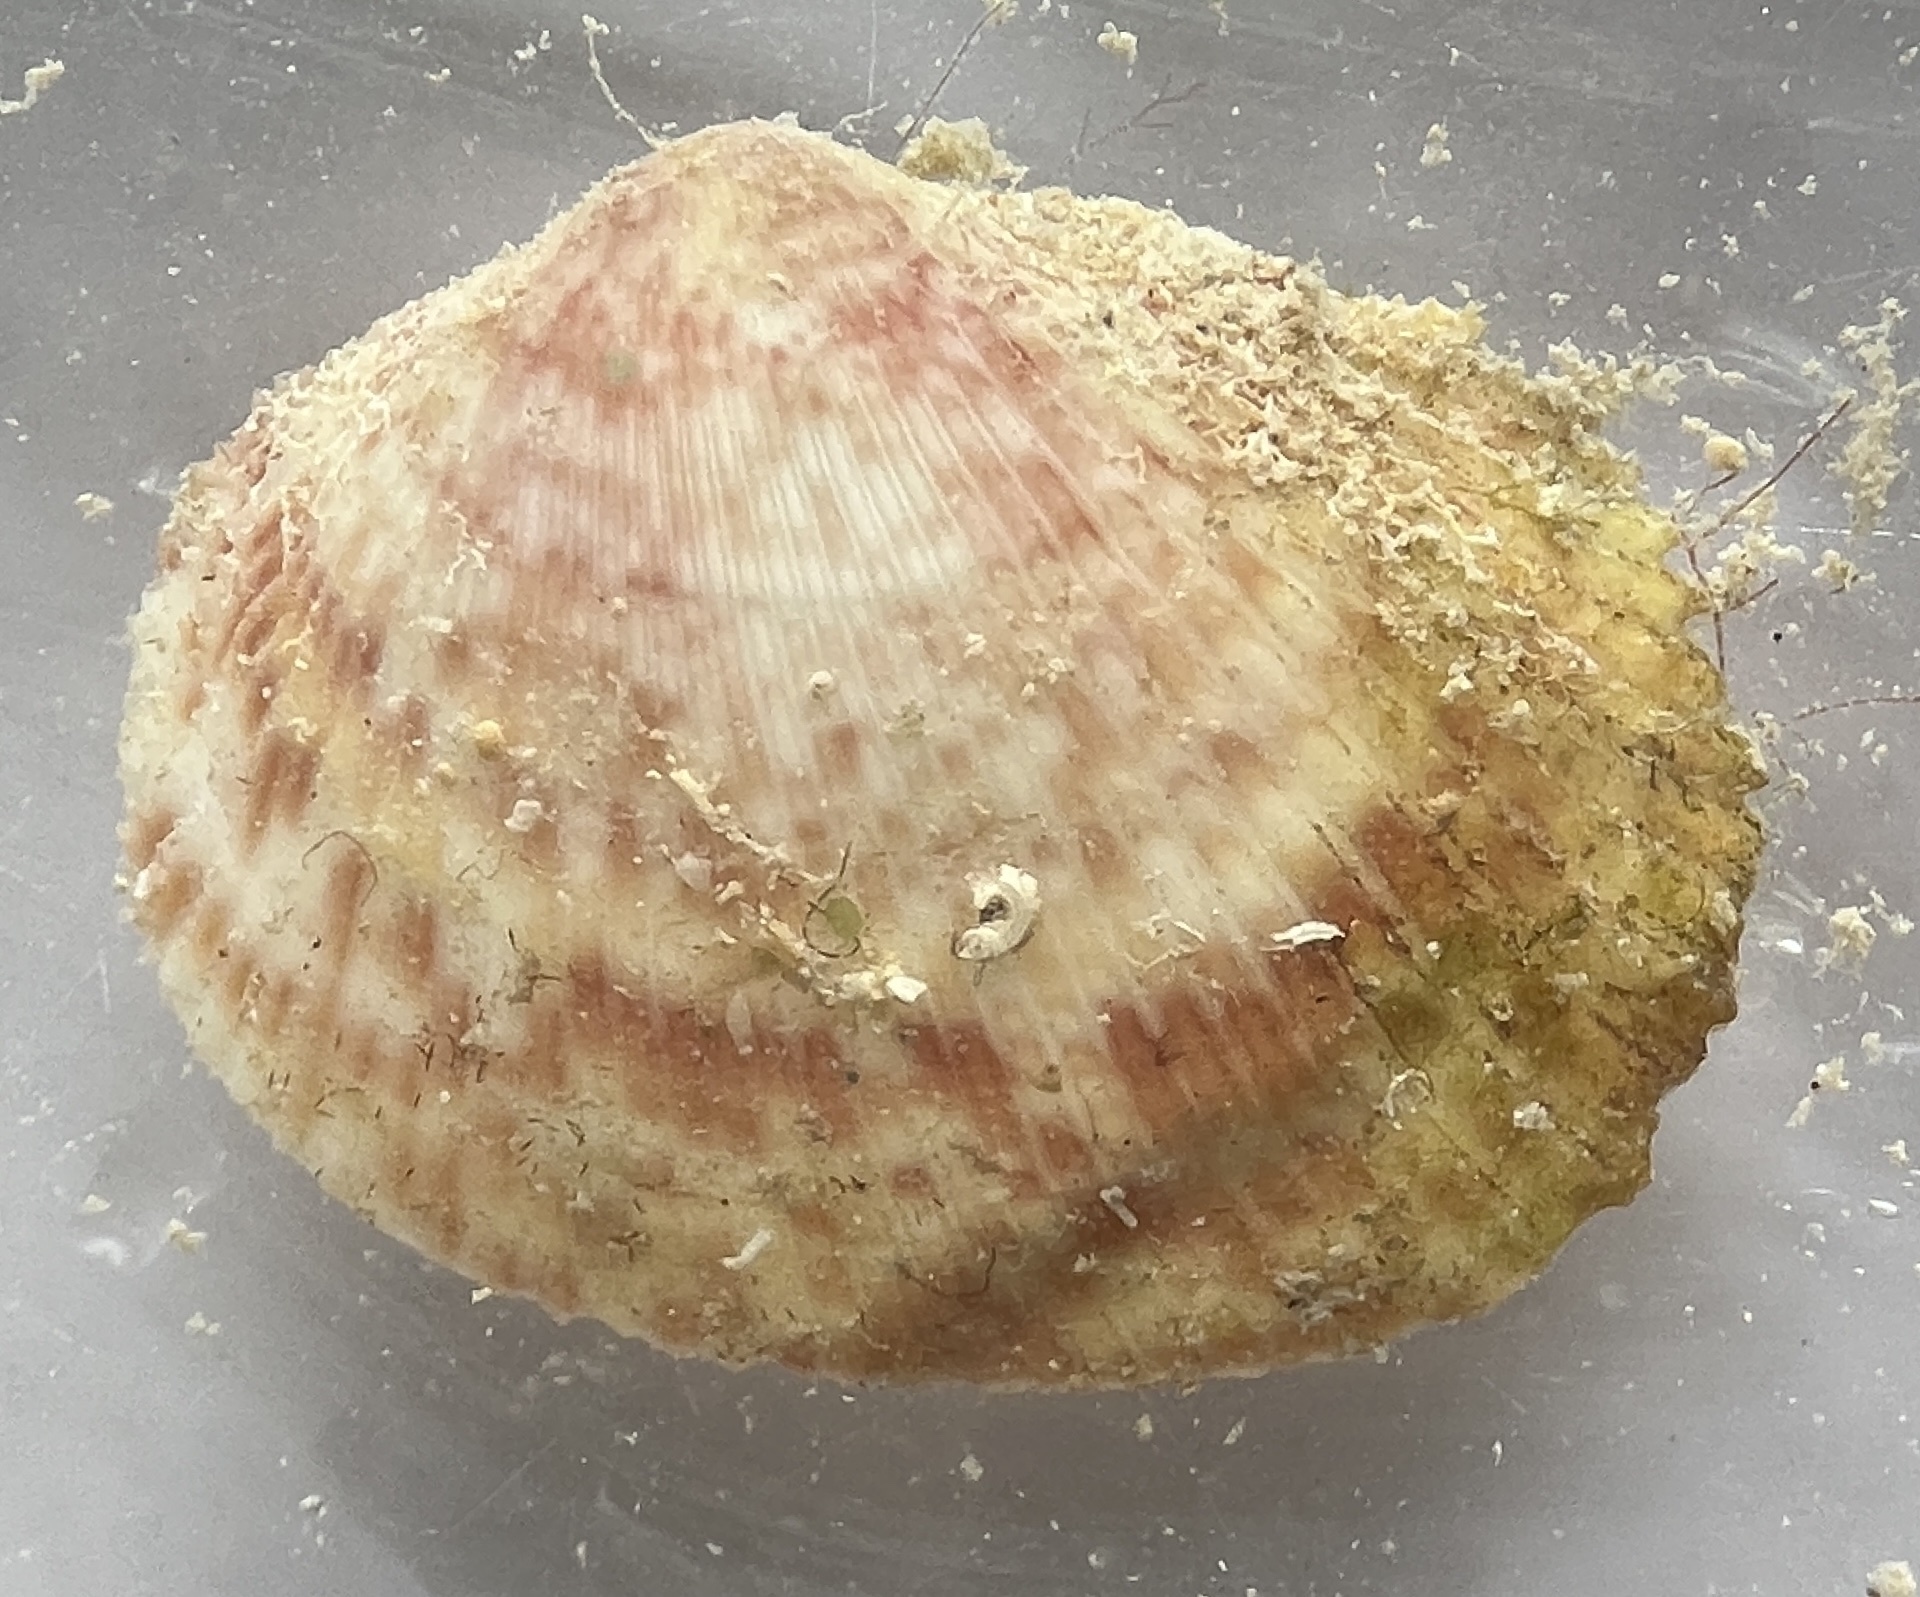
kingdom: Animalia
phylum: Mollusca
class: Bivalvia
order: Cardiida
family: Cardiidae
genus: Papyridea
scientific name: Papyridea lata
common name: Broad papercockle
